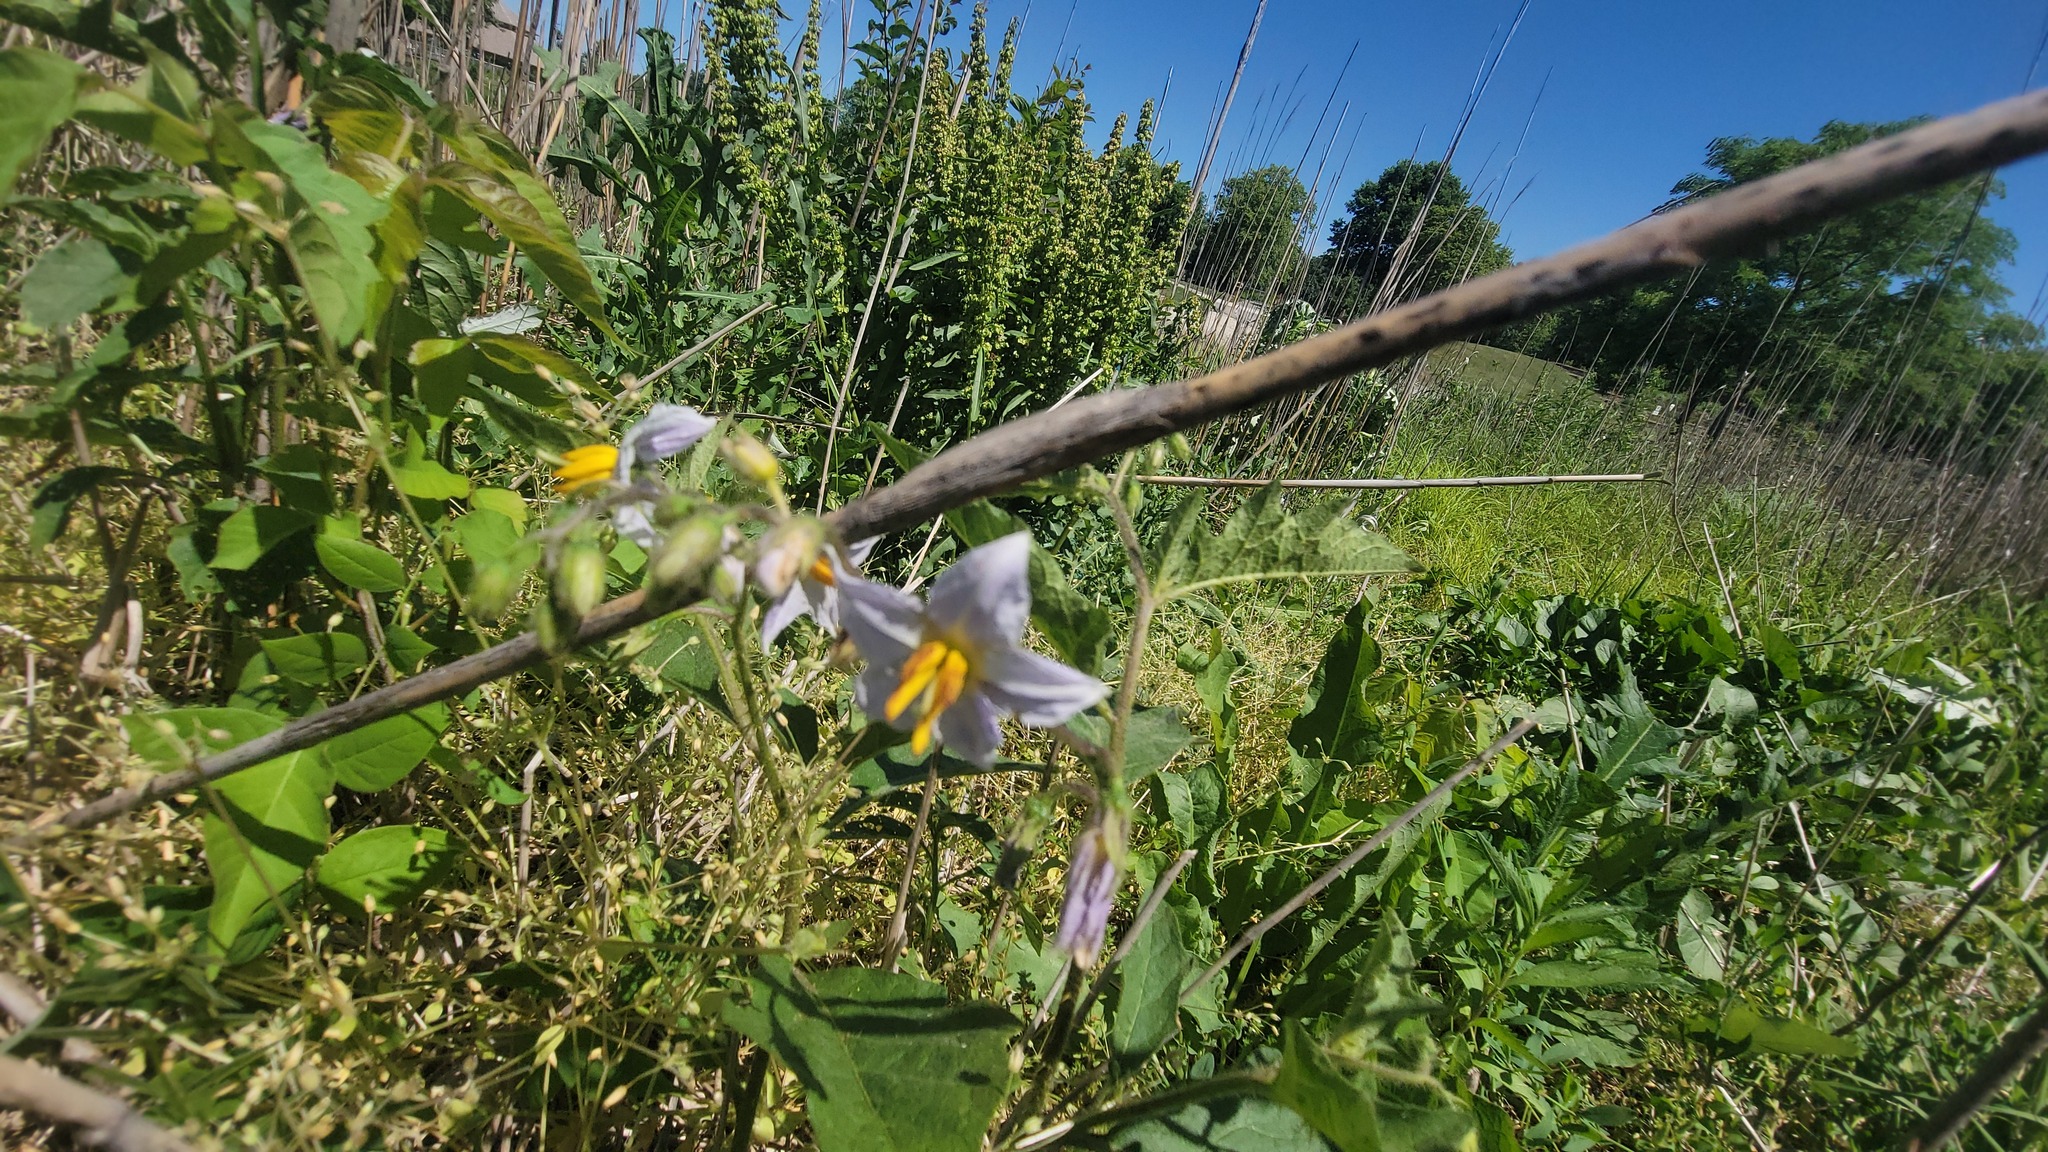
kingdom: Plantae
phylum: Tracheophyta
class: Magnoliopsida
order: Solanales
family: Solanaceae
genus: Solanum
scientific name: Solanum carolinense
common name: Horse-nettle
